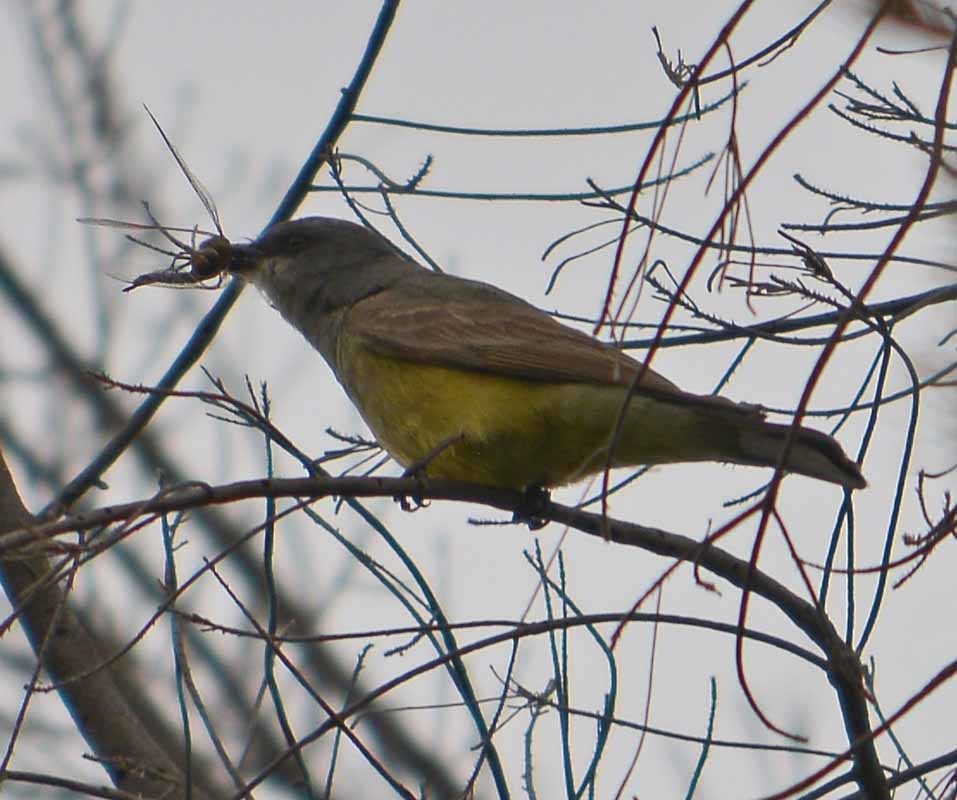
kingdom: Animalia
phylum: Chordata
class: Aves
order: Passeriformes
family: Tyrannidae
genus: Tyrannus
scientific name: Tyrannus vociferans
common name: Cassin's kingbird
